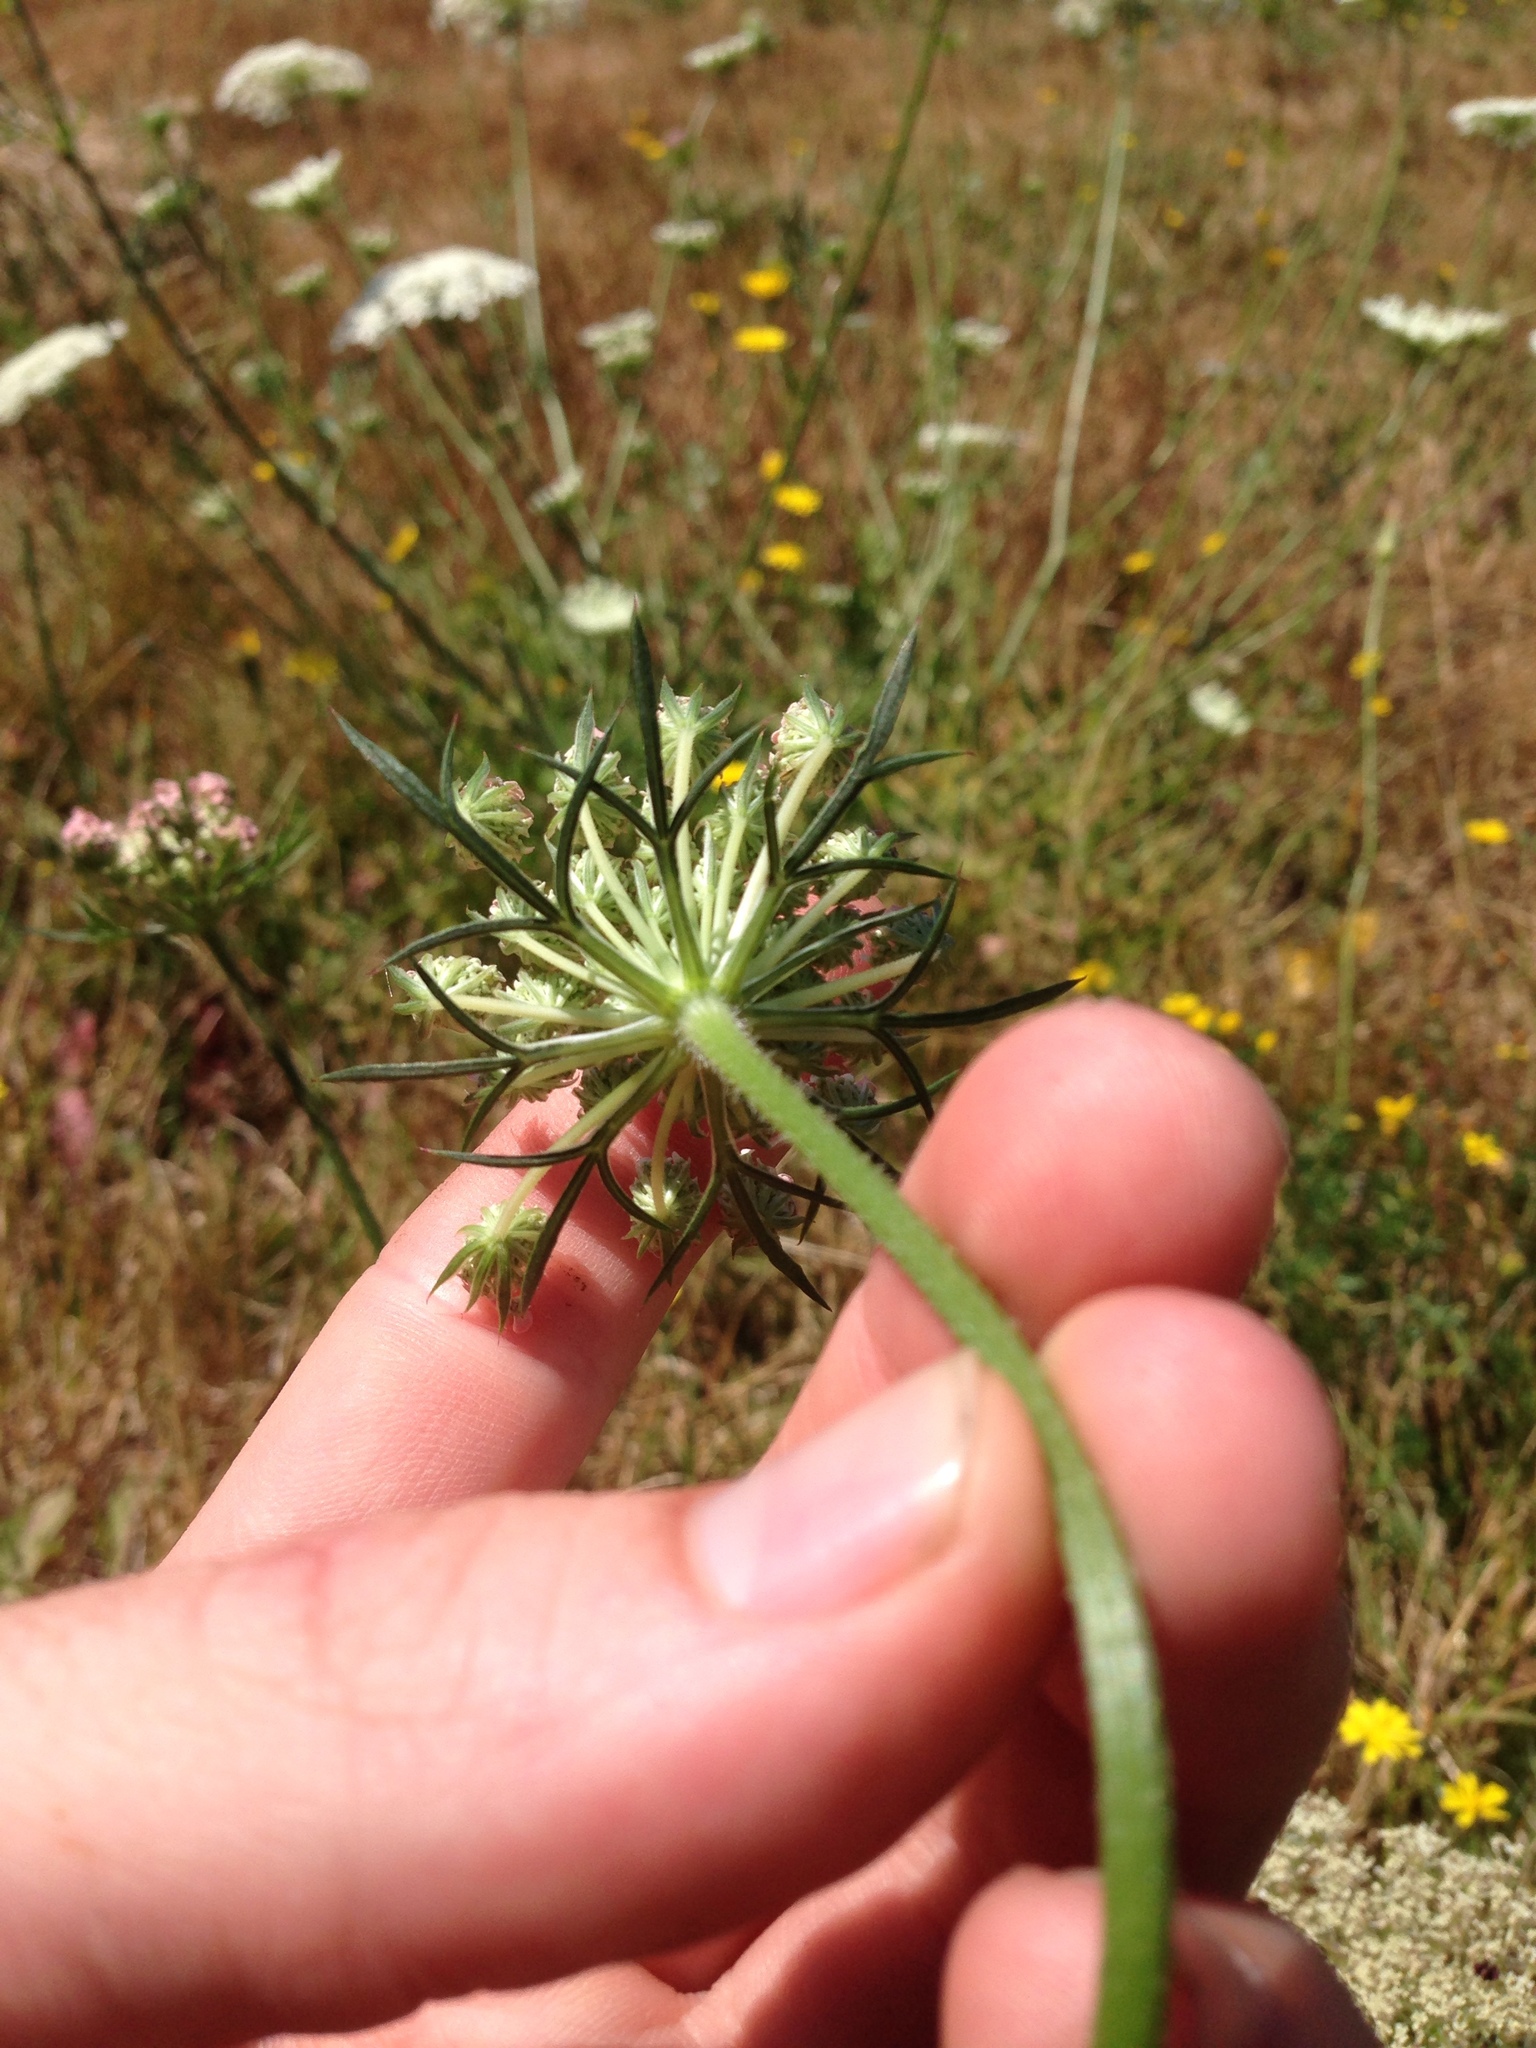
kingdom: Plantae
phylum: Tracheophyta
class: Magnoliopsida
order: Apiales
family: Apiaceae
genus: Daucus
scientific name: Daucus carota
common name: Wild carrot
